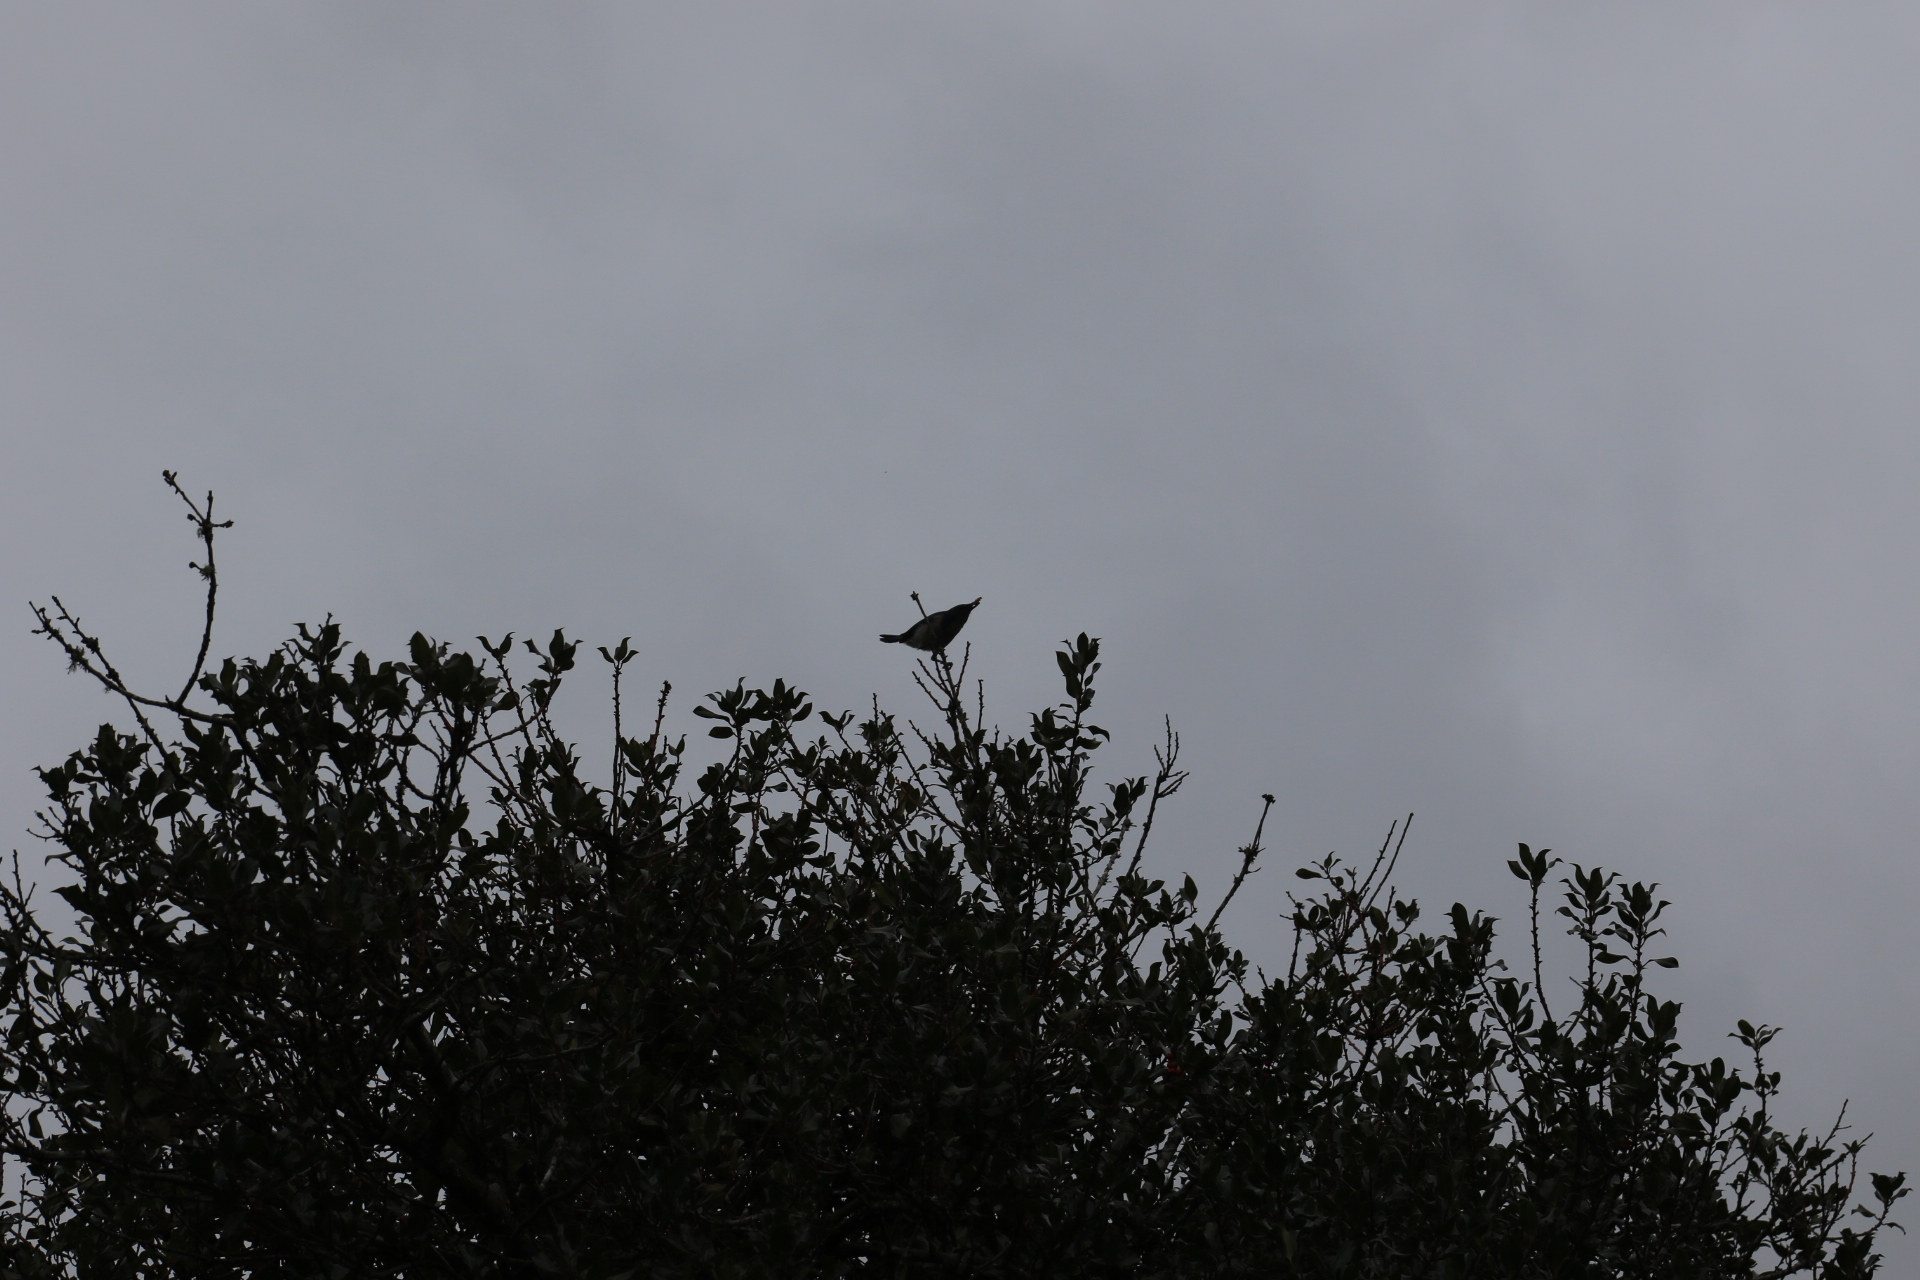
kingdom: Animalia
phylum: Chordata
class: Aves
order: Passeriformes
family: Corvidae
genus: Aphelocoma
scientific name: Aphelocoma californica
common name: California scrub-jay
